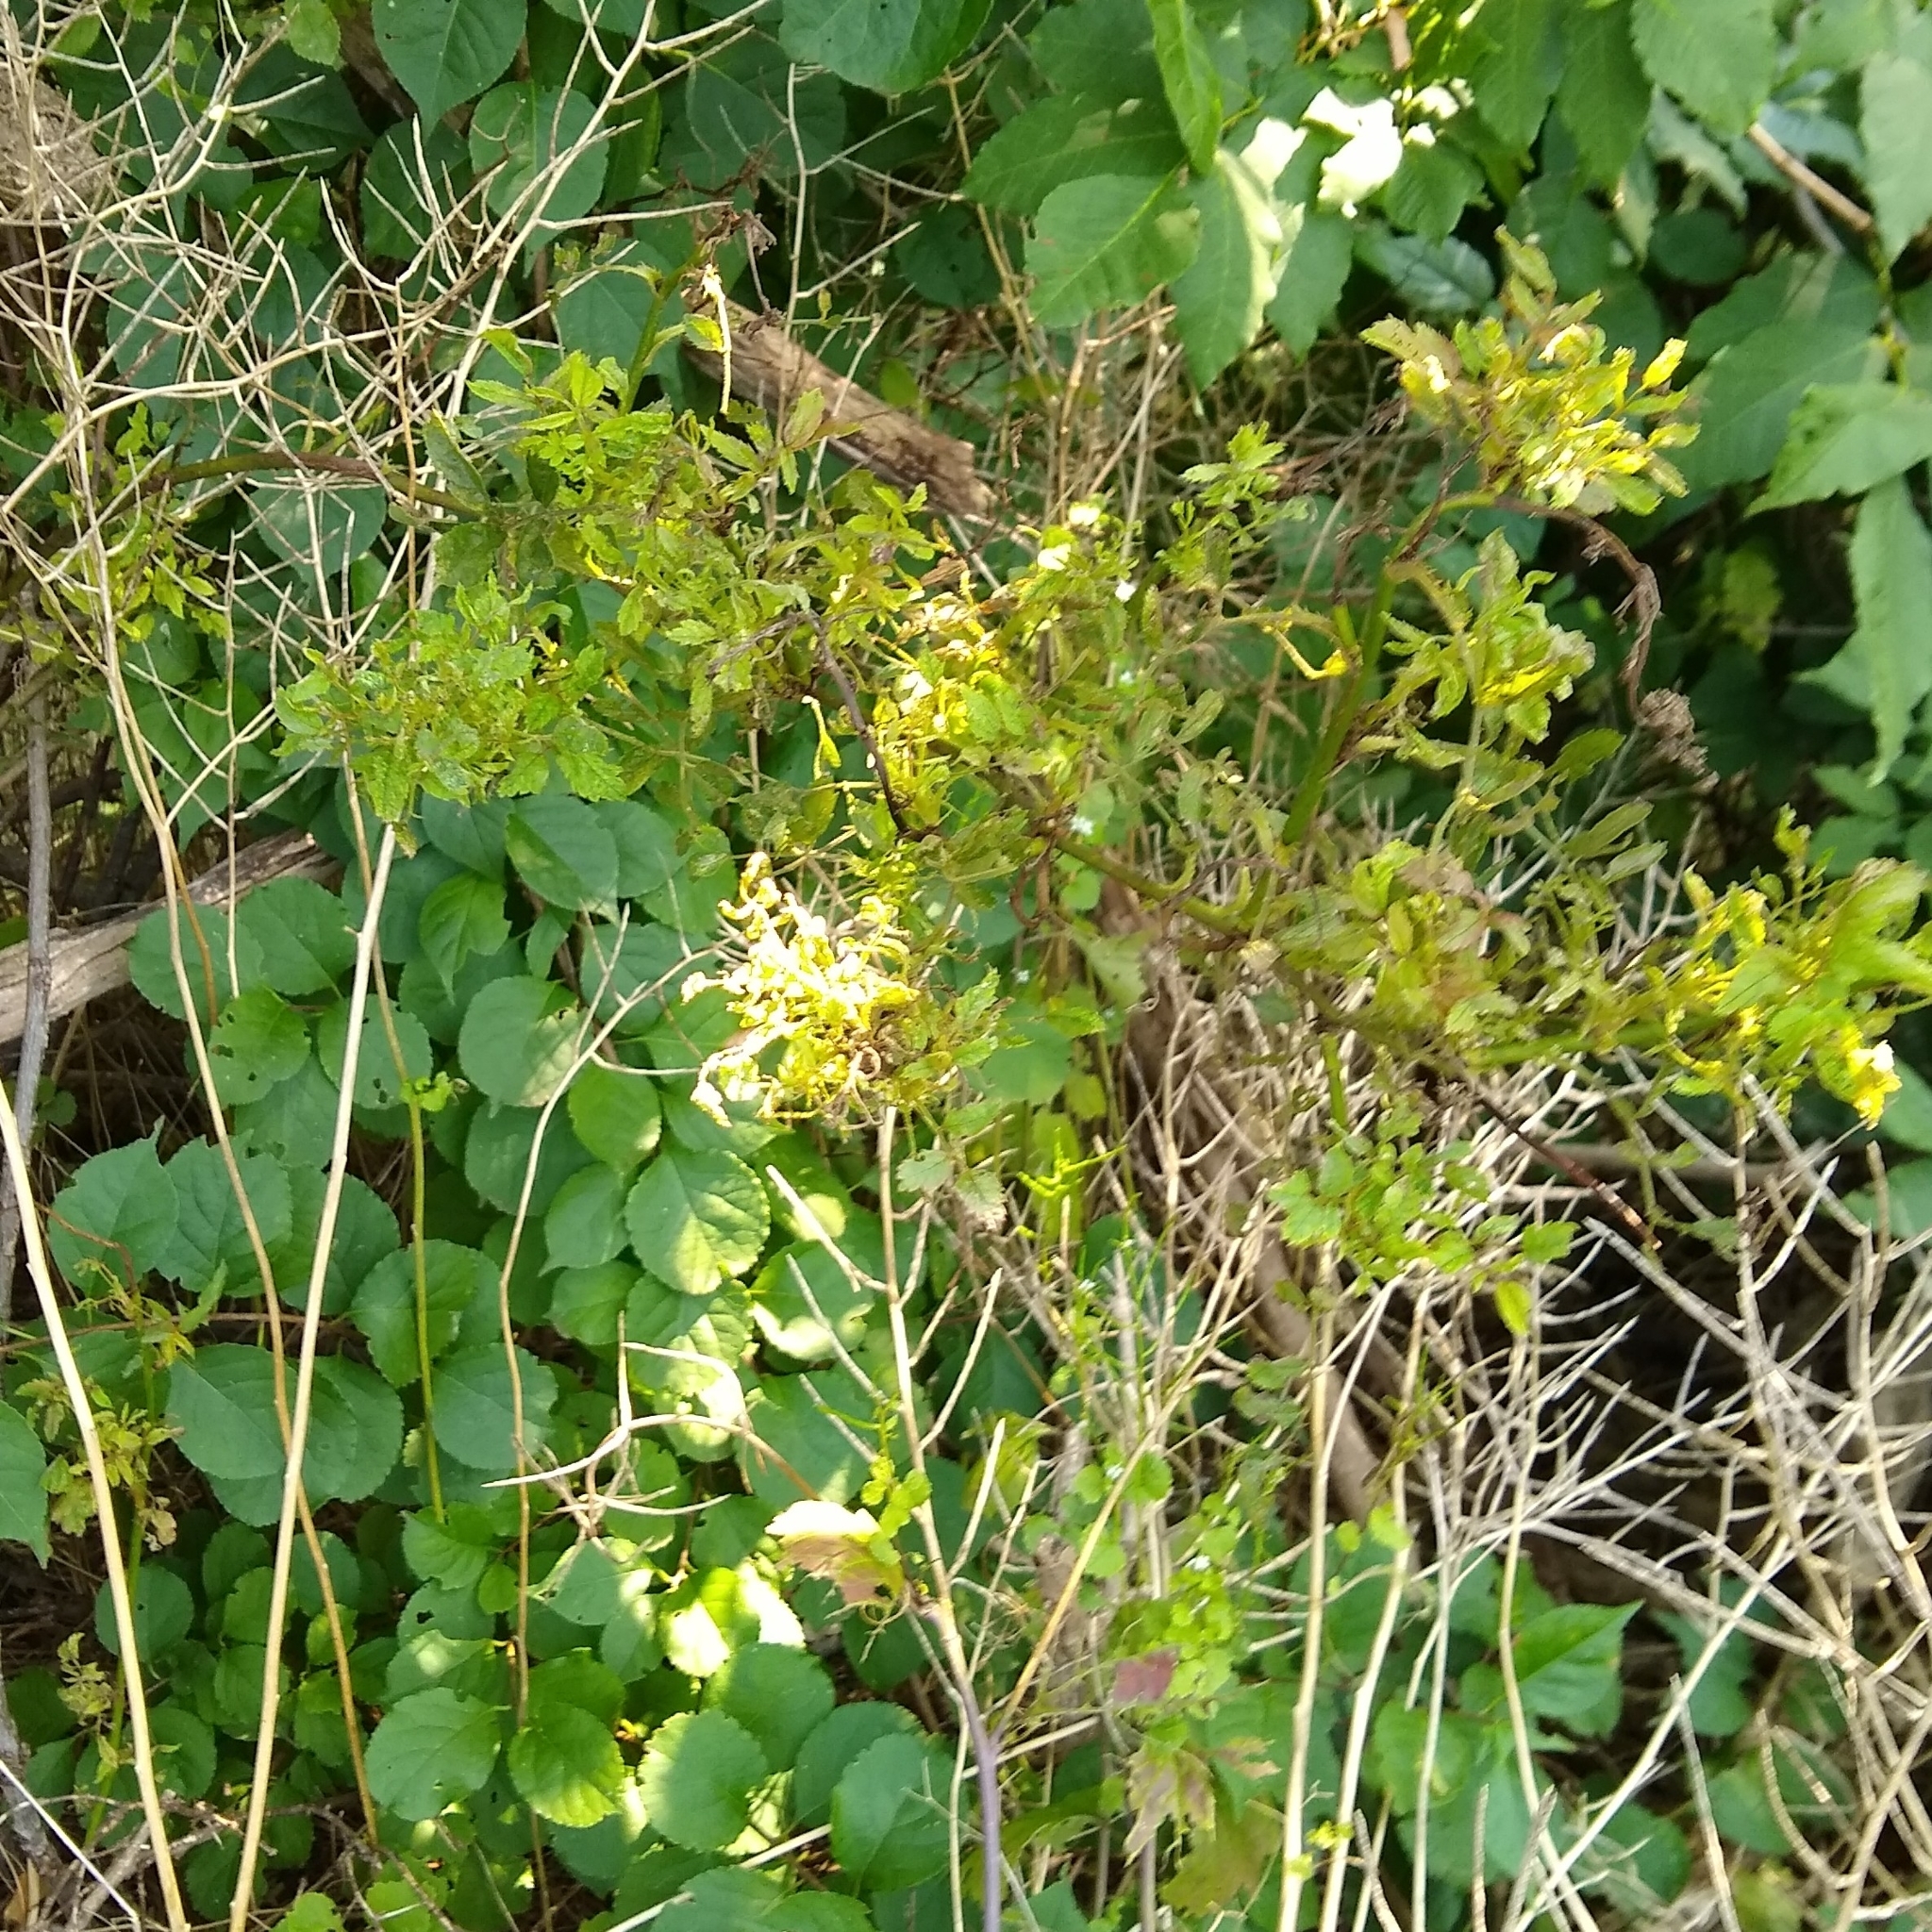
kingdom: Viruses
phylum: Negarnaviricota
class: Ellioviricetes
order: Bunyavirales
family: Fimoviridae
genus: Emaravirus
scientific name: Emaravirus rosae
